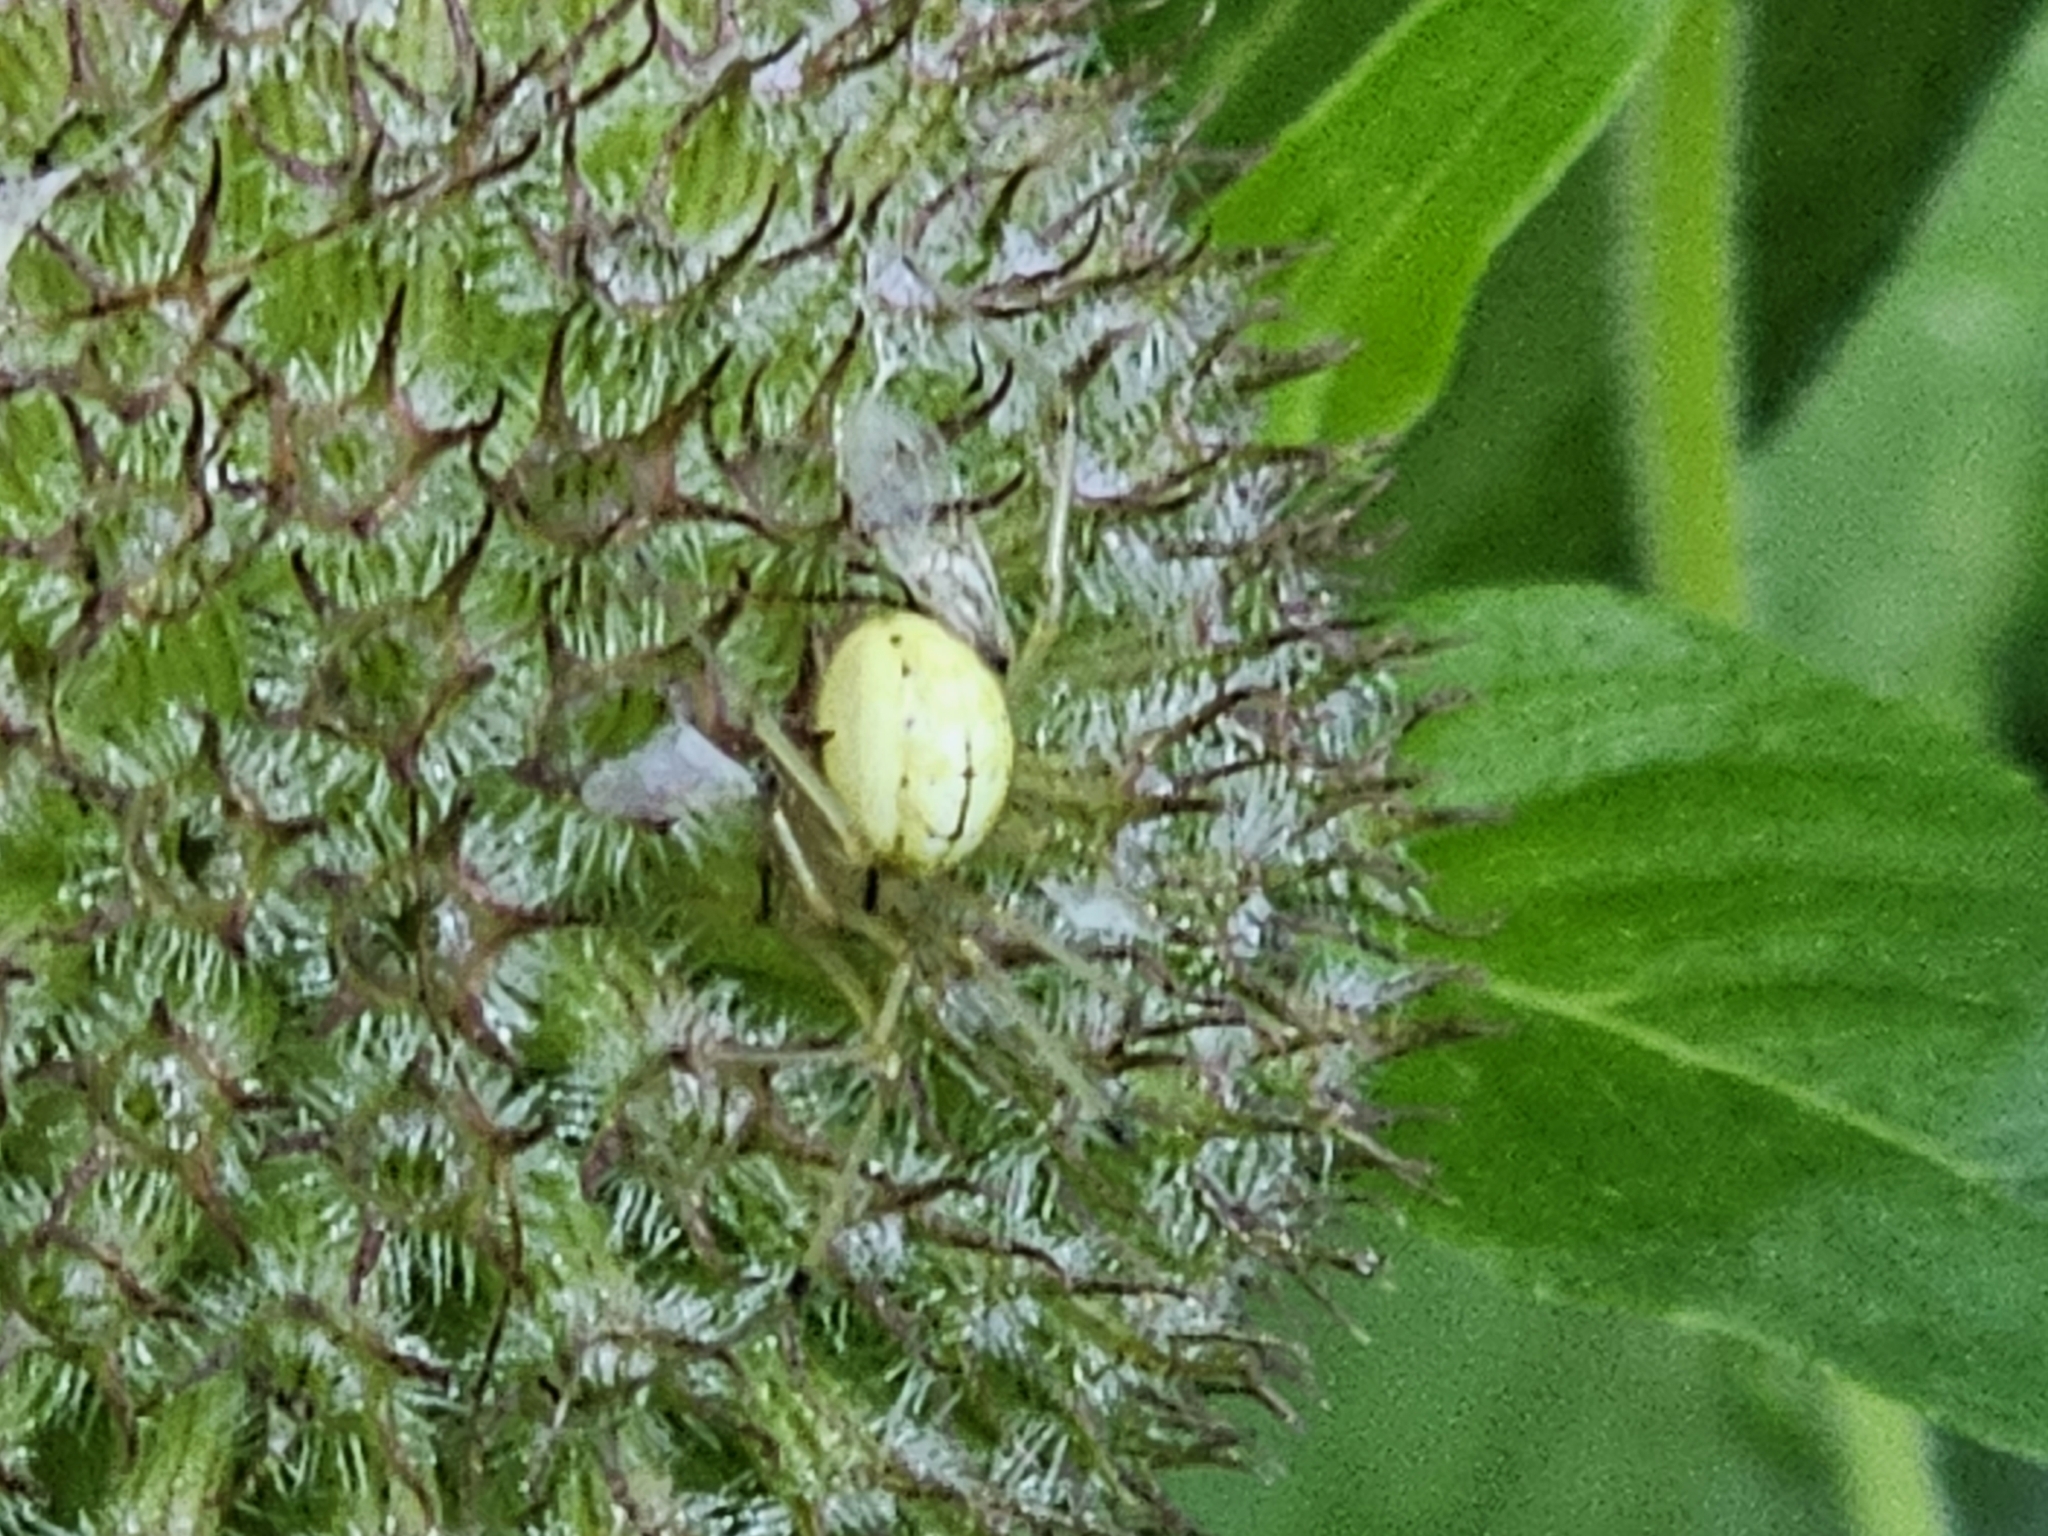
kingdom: Animalia
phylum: Arthropoda
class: Arachnida
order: Araneae
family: Theridiidae
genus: Enoplognatha
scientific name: Enoplognatha ovata
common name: Common candy-striped spider
